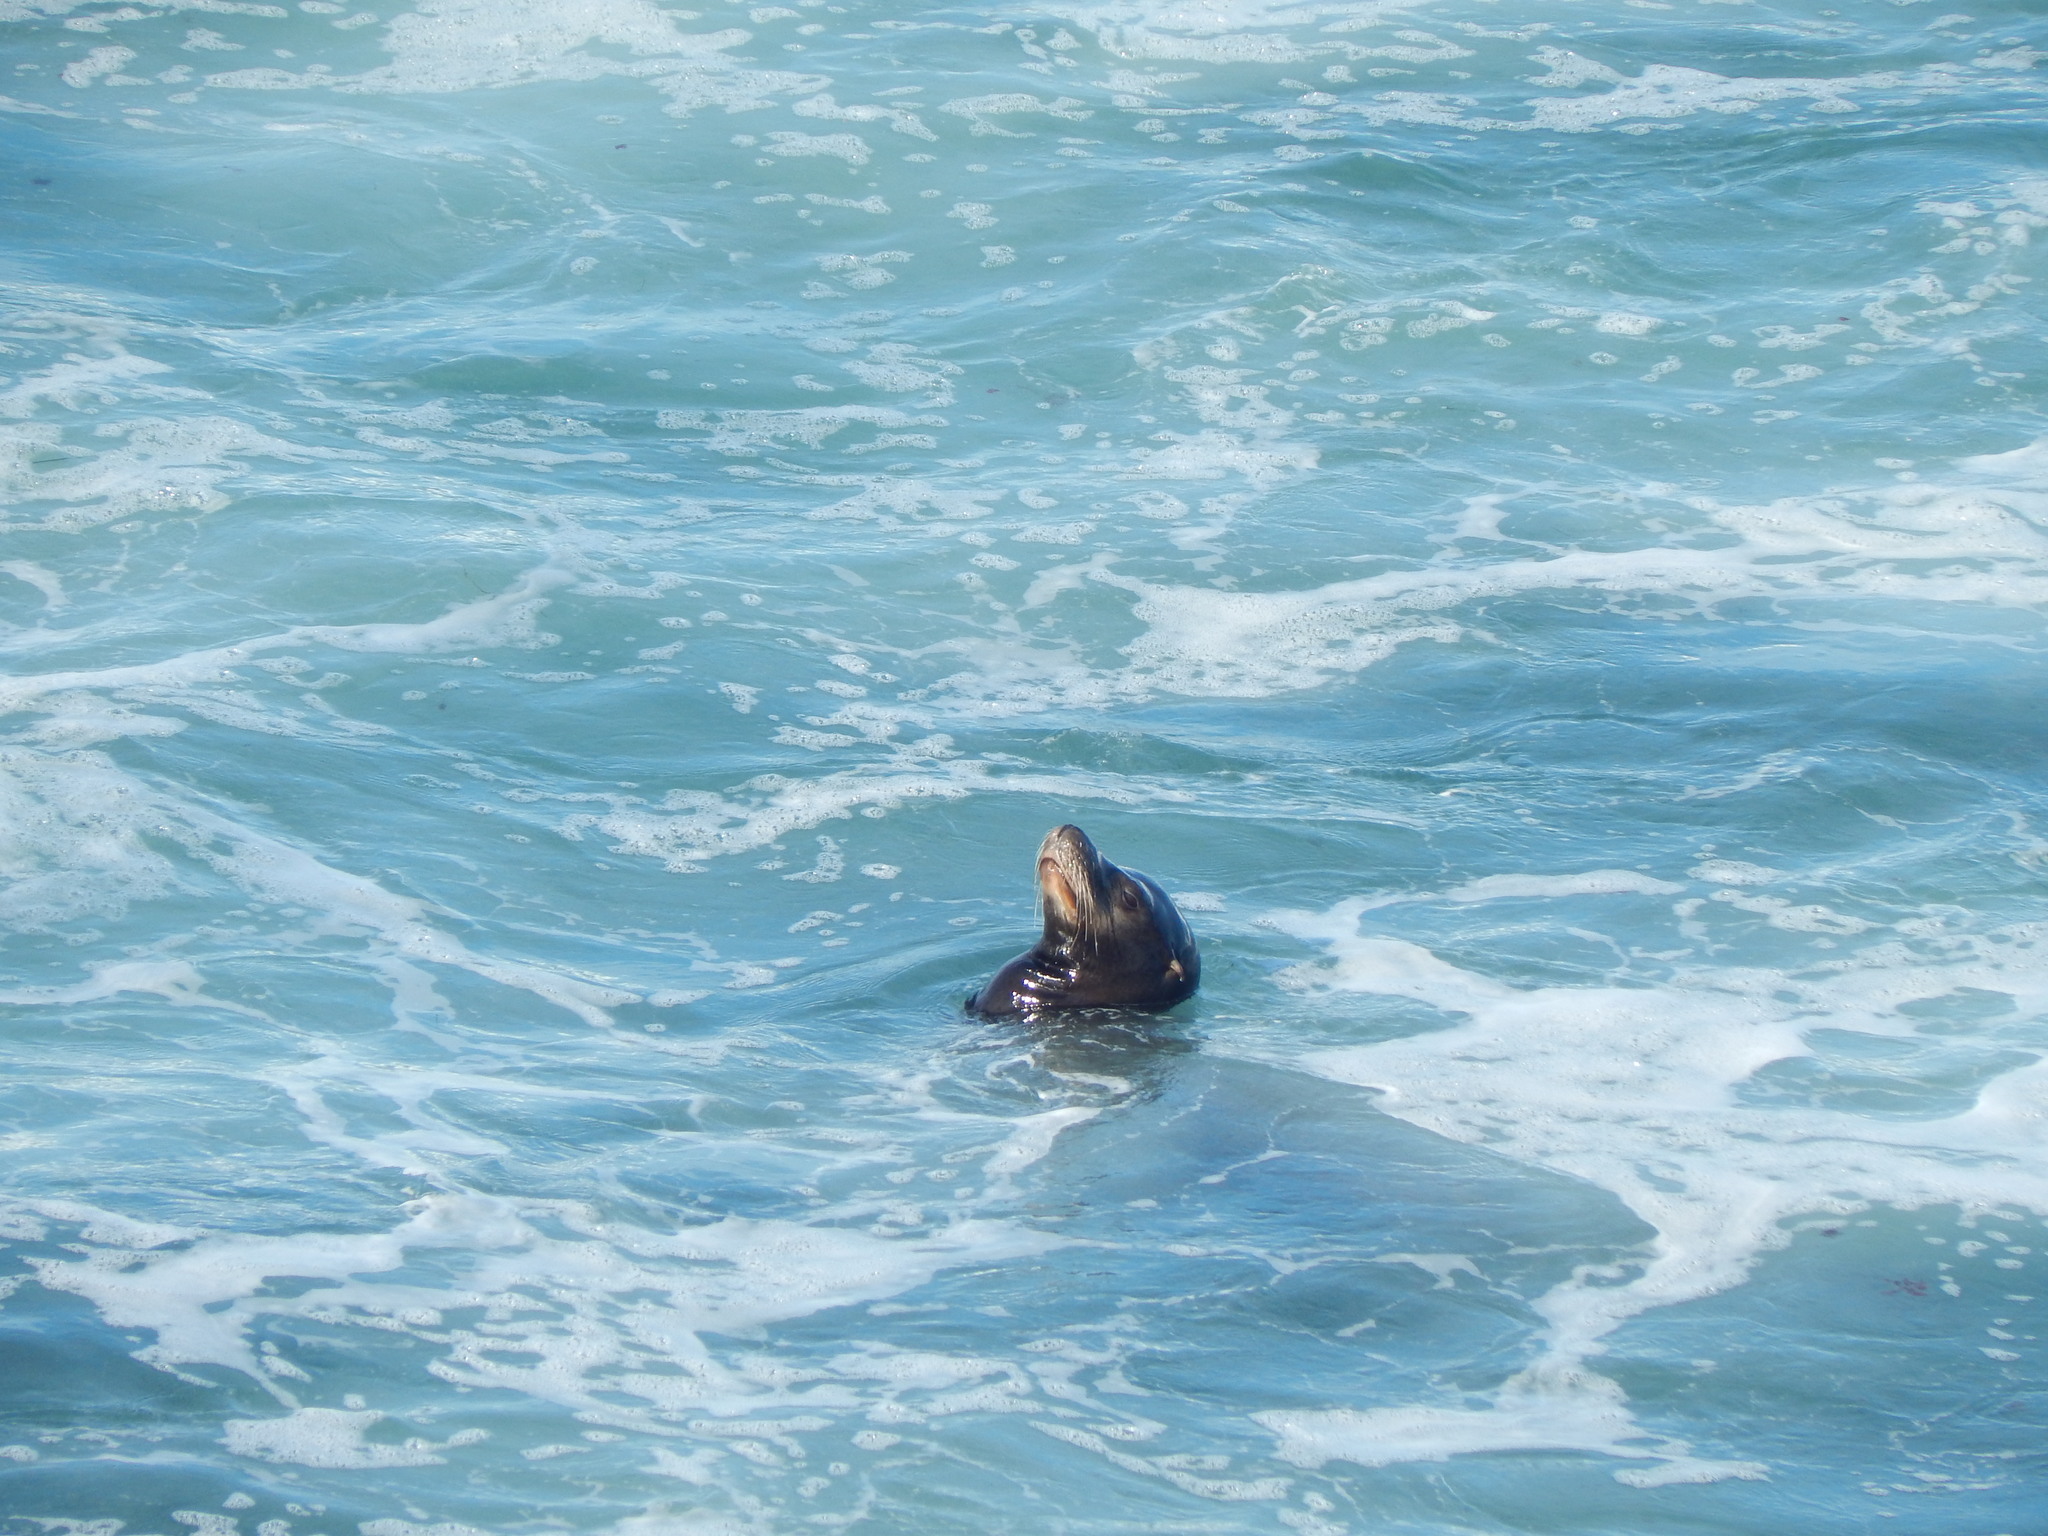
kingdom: Animalia
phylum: Chordata
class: Mammalia
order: Carnivora
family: Otariidae
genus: Zalophus
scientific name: Zalophus californianus
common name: California sea lion
